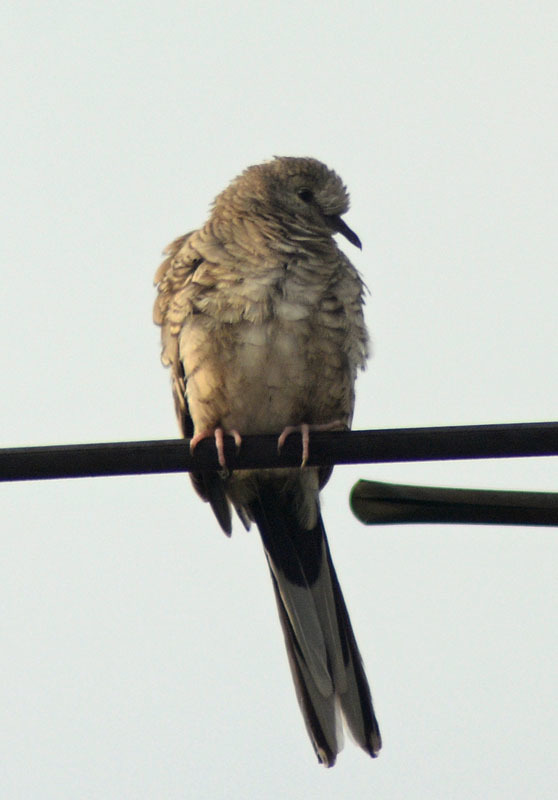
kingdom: Animalia
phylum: Chordata
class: Aves
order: Columbiformes
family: Columbidae
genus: Columbina
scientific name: Columbina inca
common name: Inca dove
